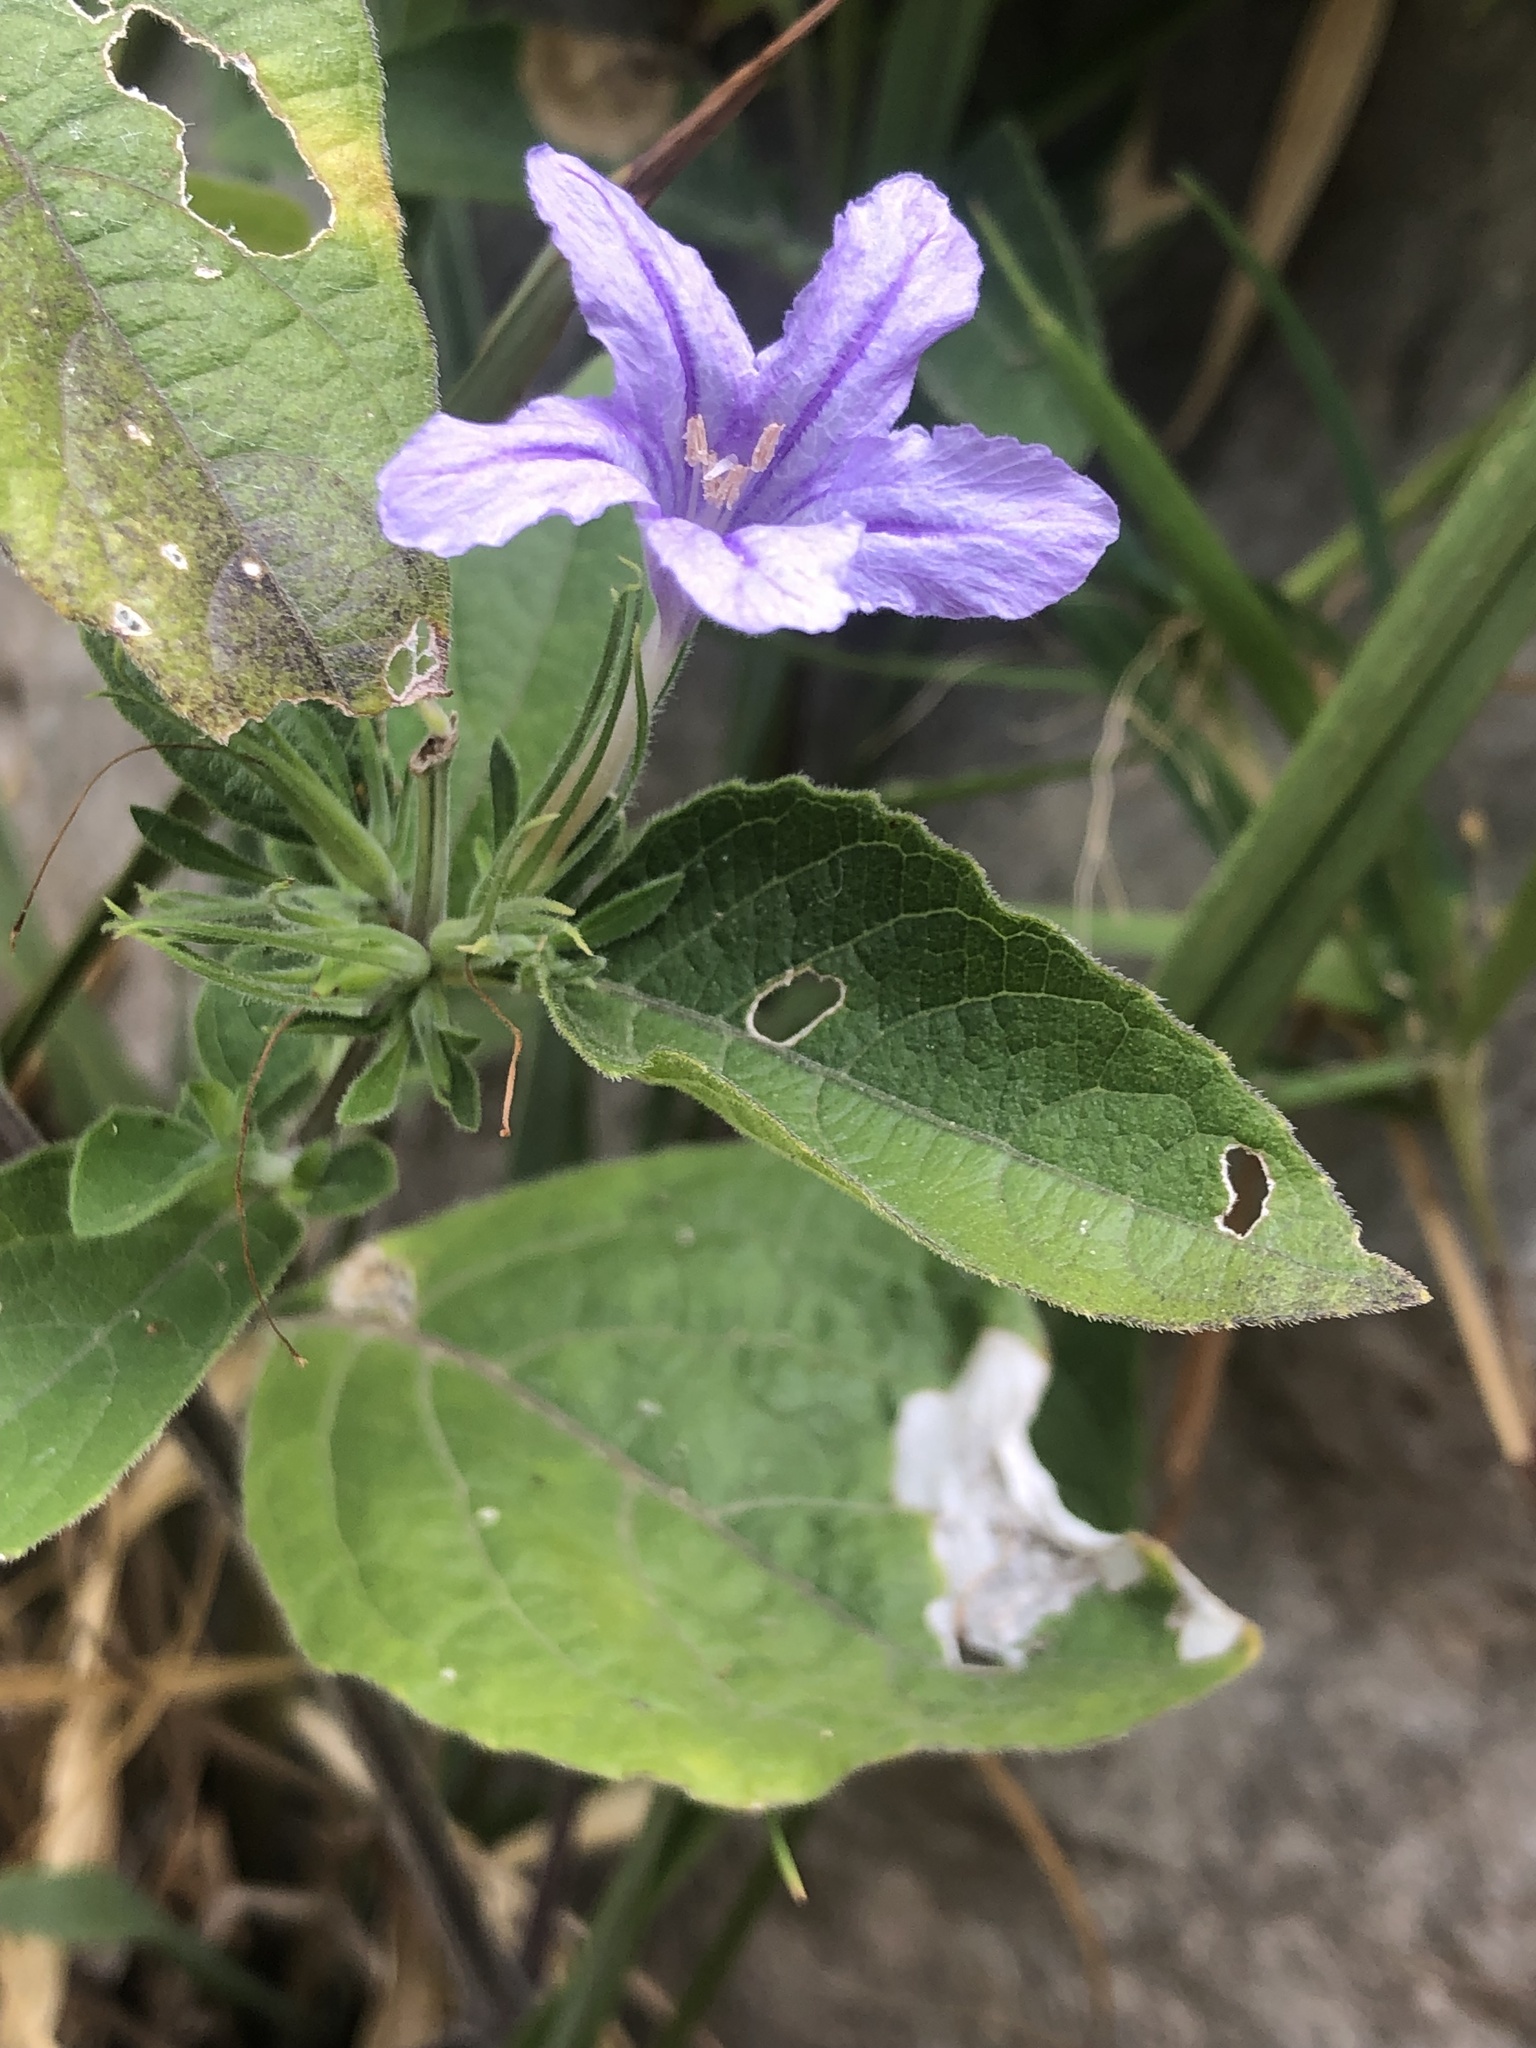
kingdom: Plantae
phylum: Tracheophyta
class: Magnoliopsida
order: Lamiales
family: Acanthaceae
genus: Ruellia
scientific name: Ruellia drummondiana
